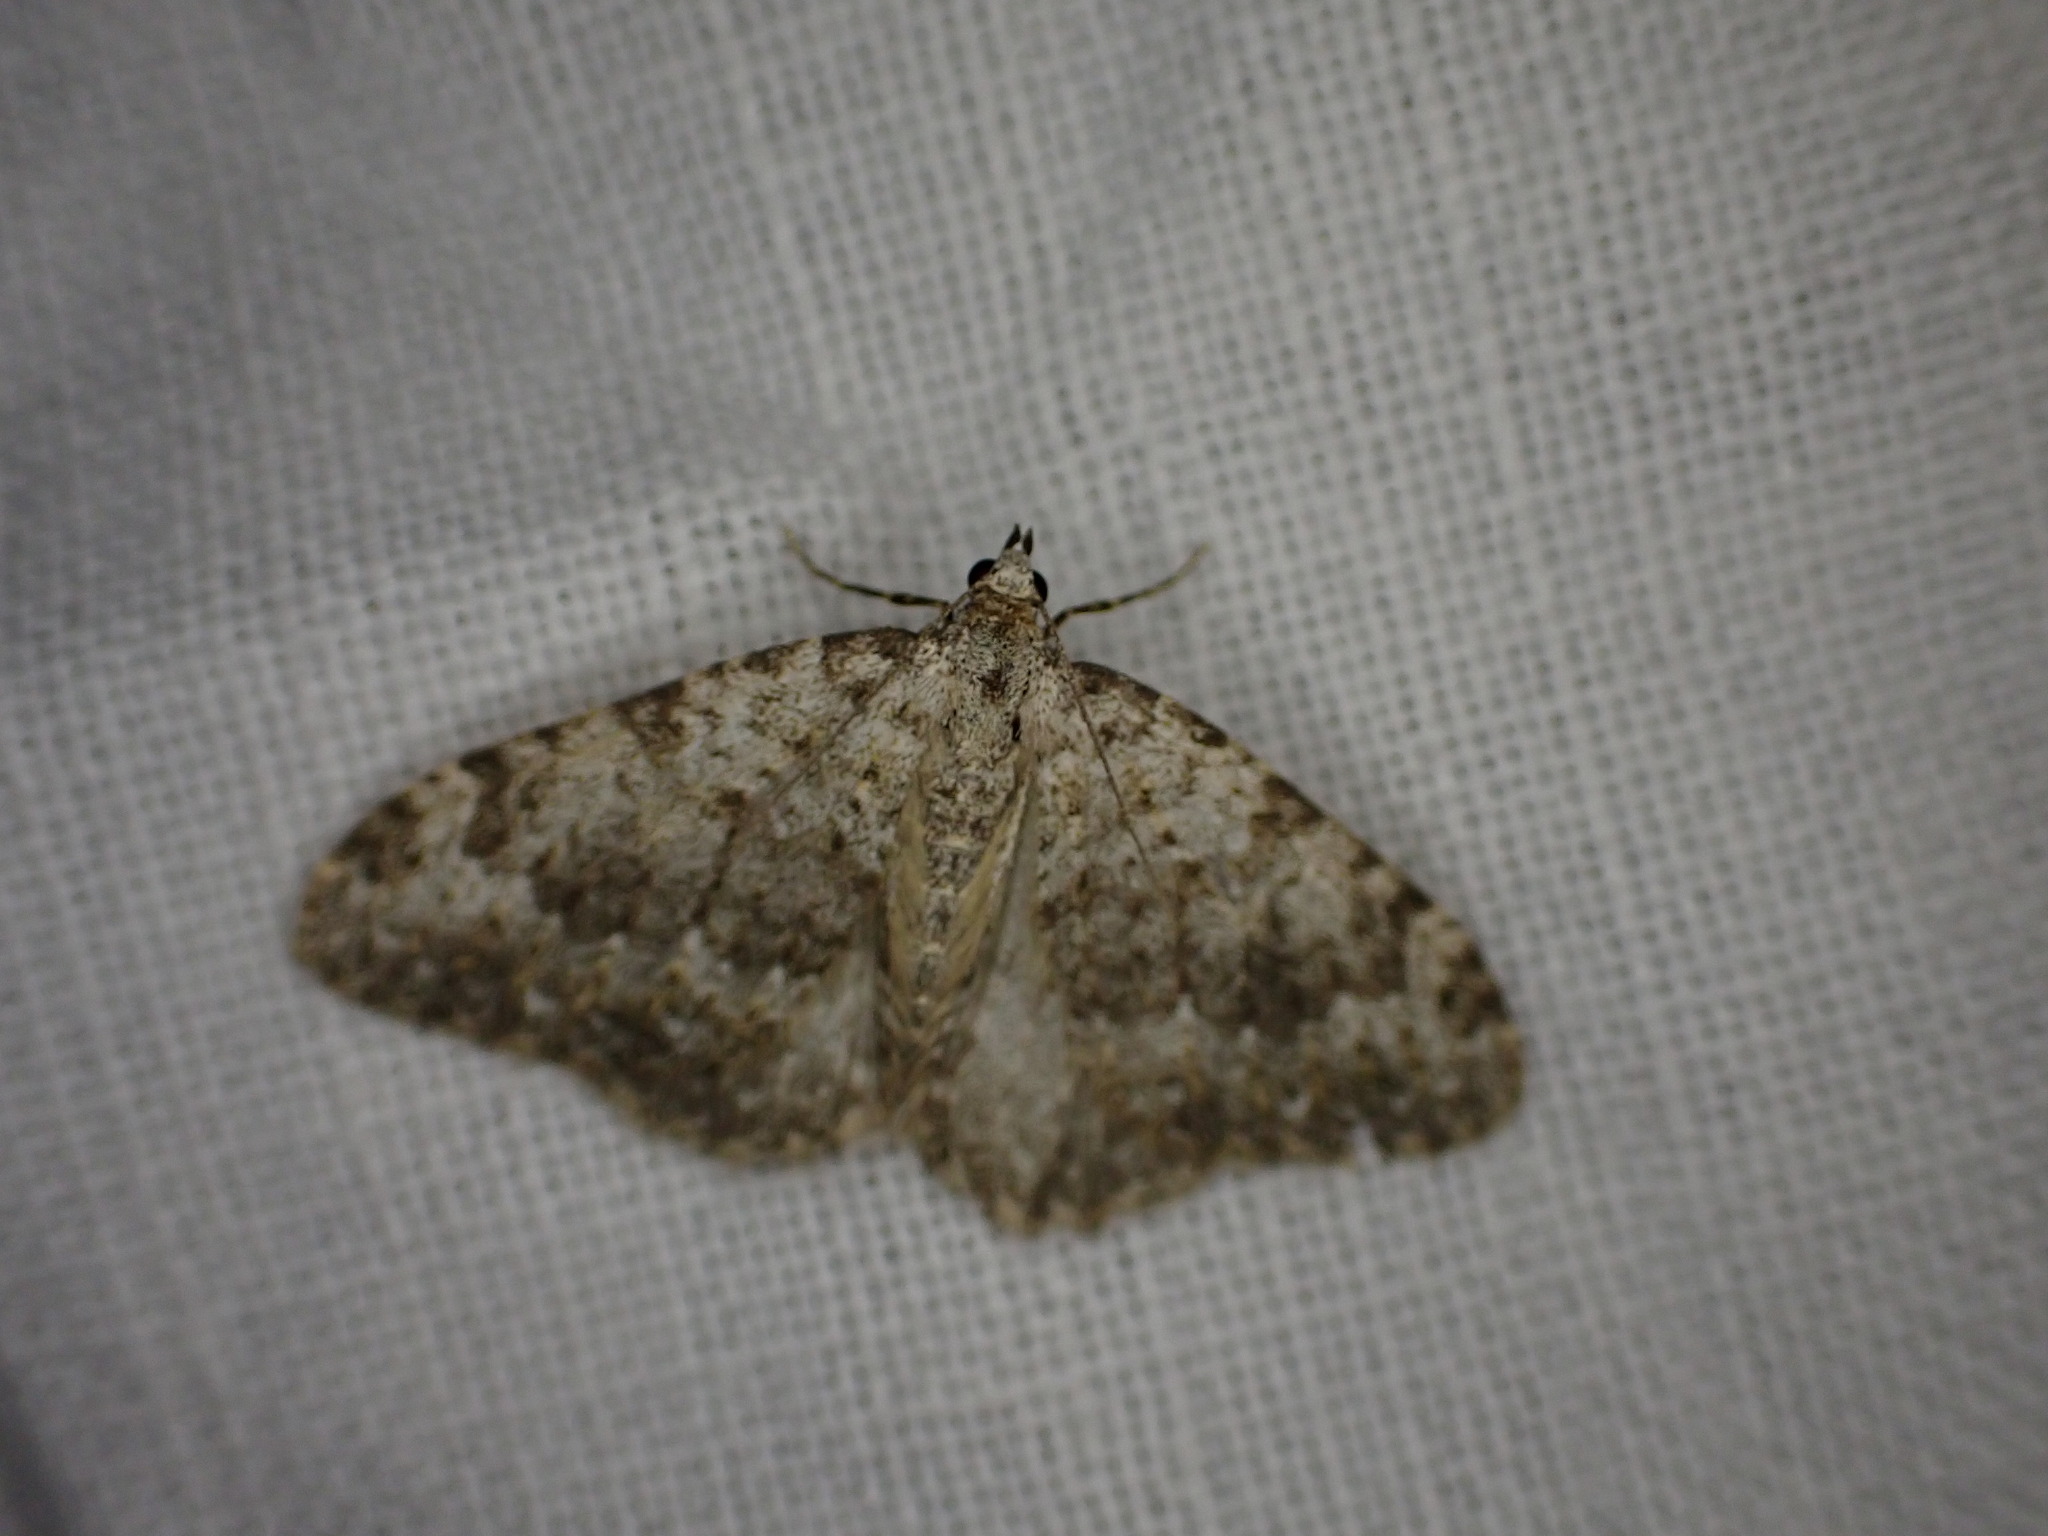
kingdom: Animalia
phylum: Arthropoda
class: Insecta
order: Lepidoptera
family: Geometridae
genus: Nebula
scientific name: Nebula salicata
